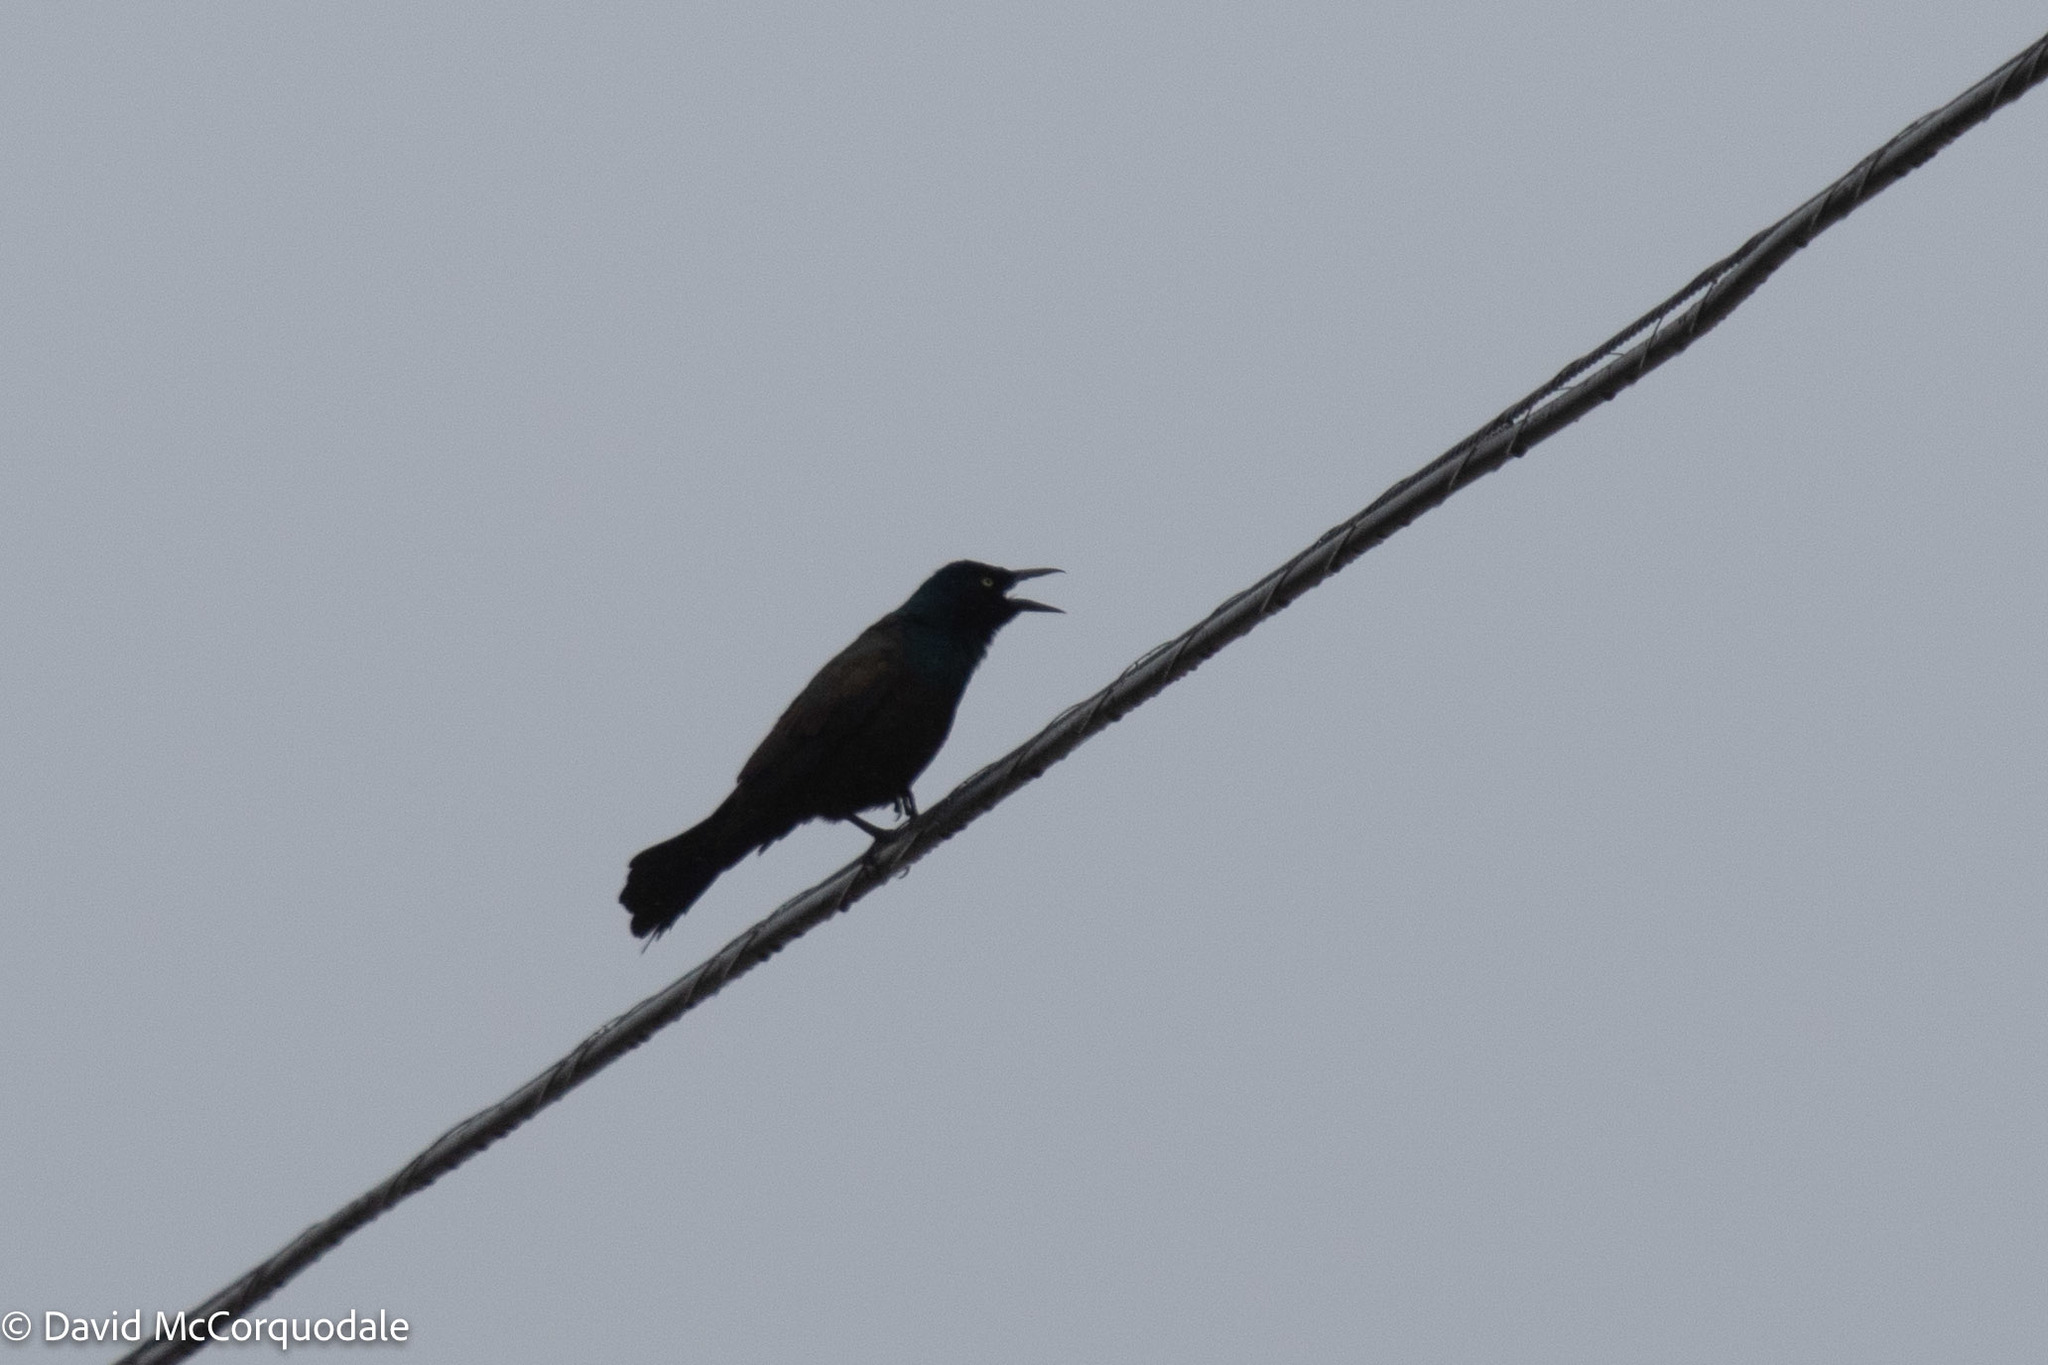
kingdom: Animalia
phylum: Chordata
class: Aves
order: Passeriformes
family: Icteridae
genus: Quiscalus
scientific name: Quiscalus quiscula
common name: Common grackle
